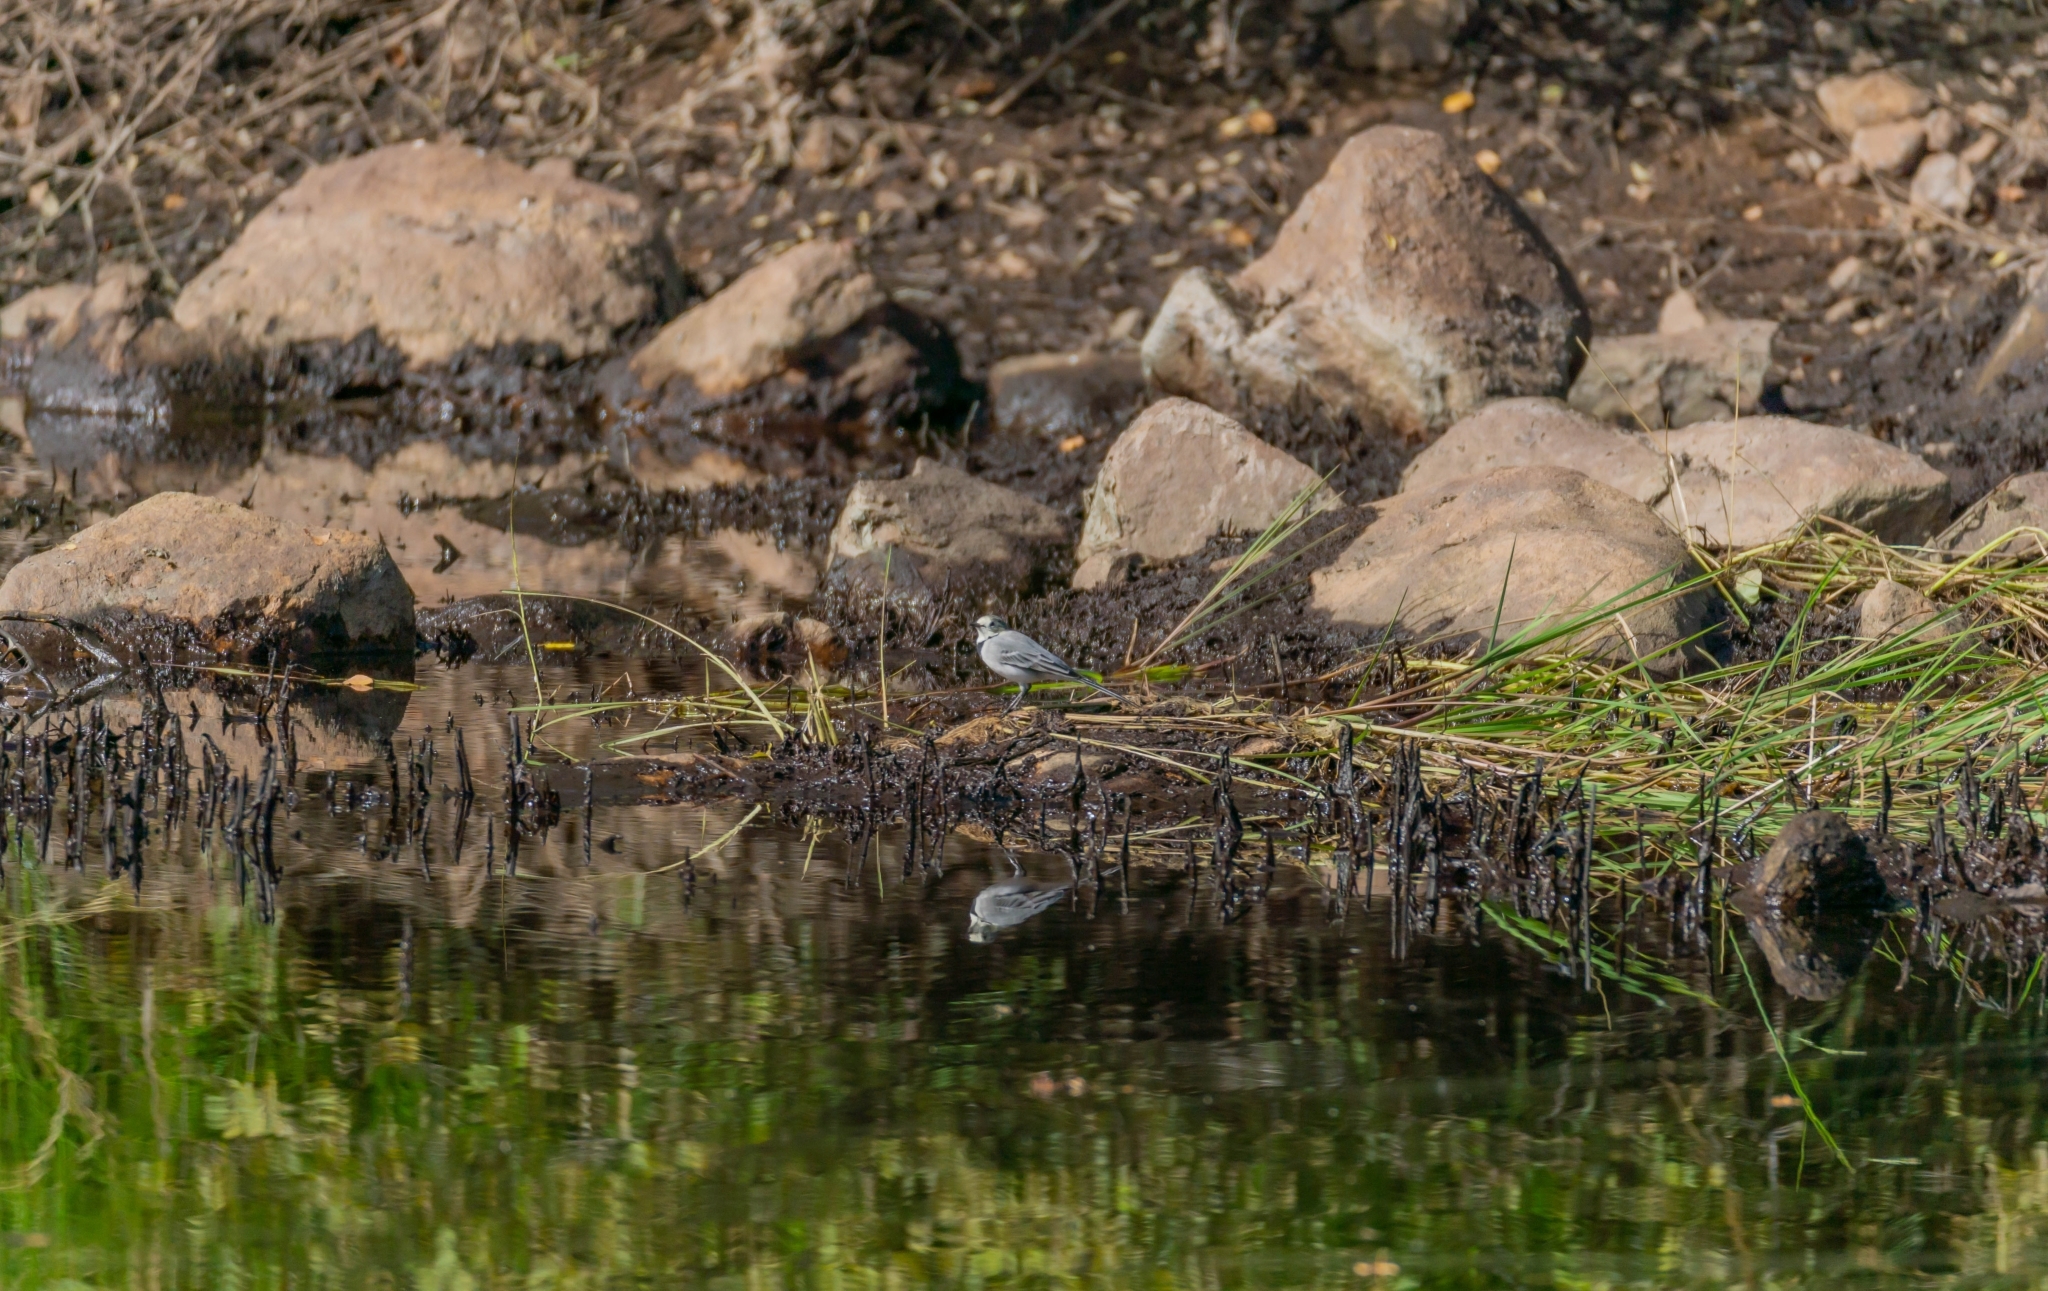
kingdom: Animalia
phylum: Chordata
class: Aves
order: Passeriformes
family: Motacillidae
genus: Motacilla
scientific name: Motacilla alba
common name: White wagtail
